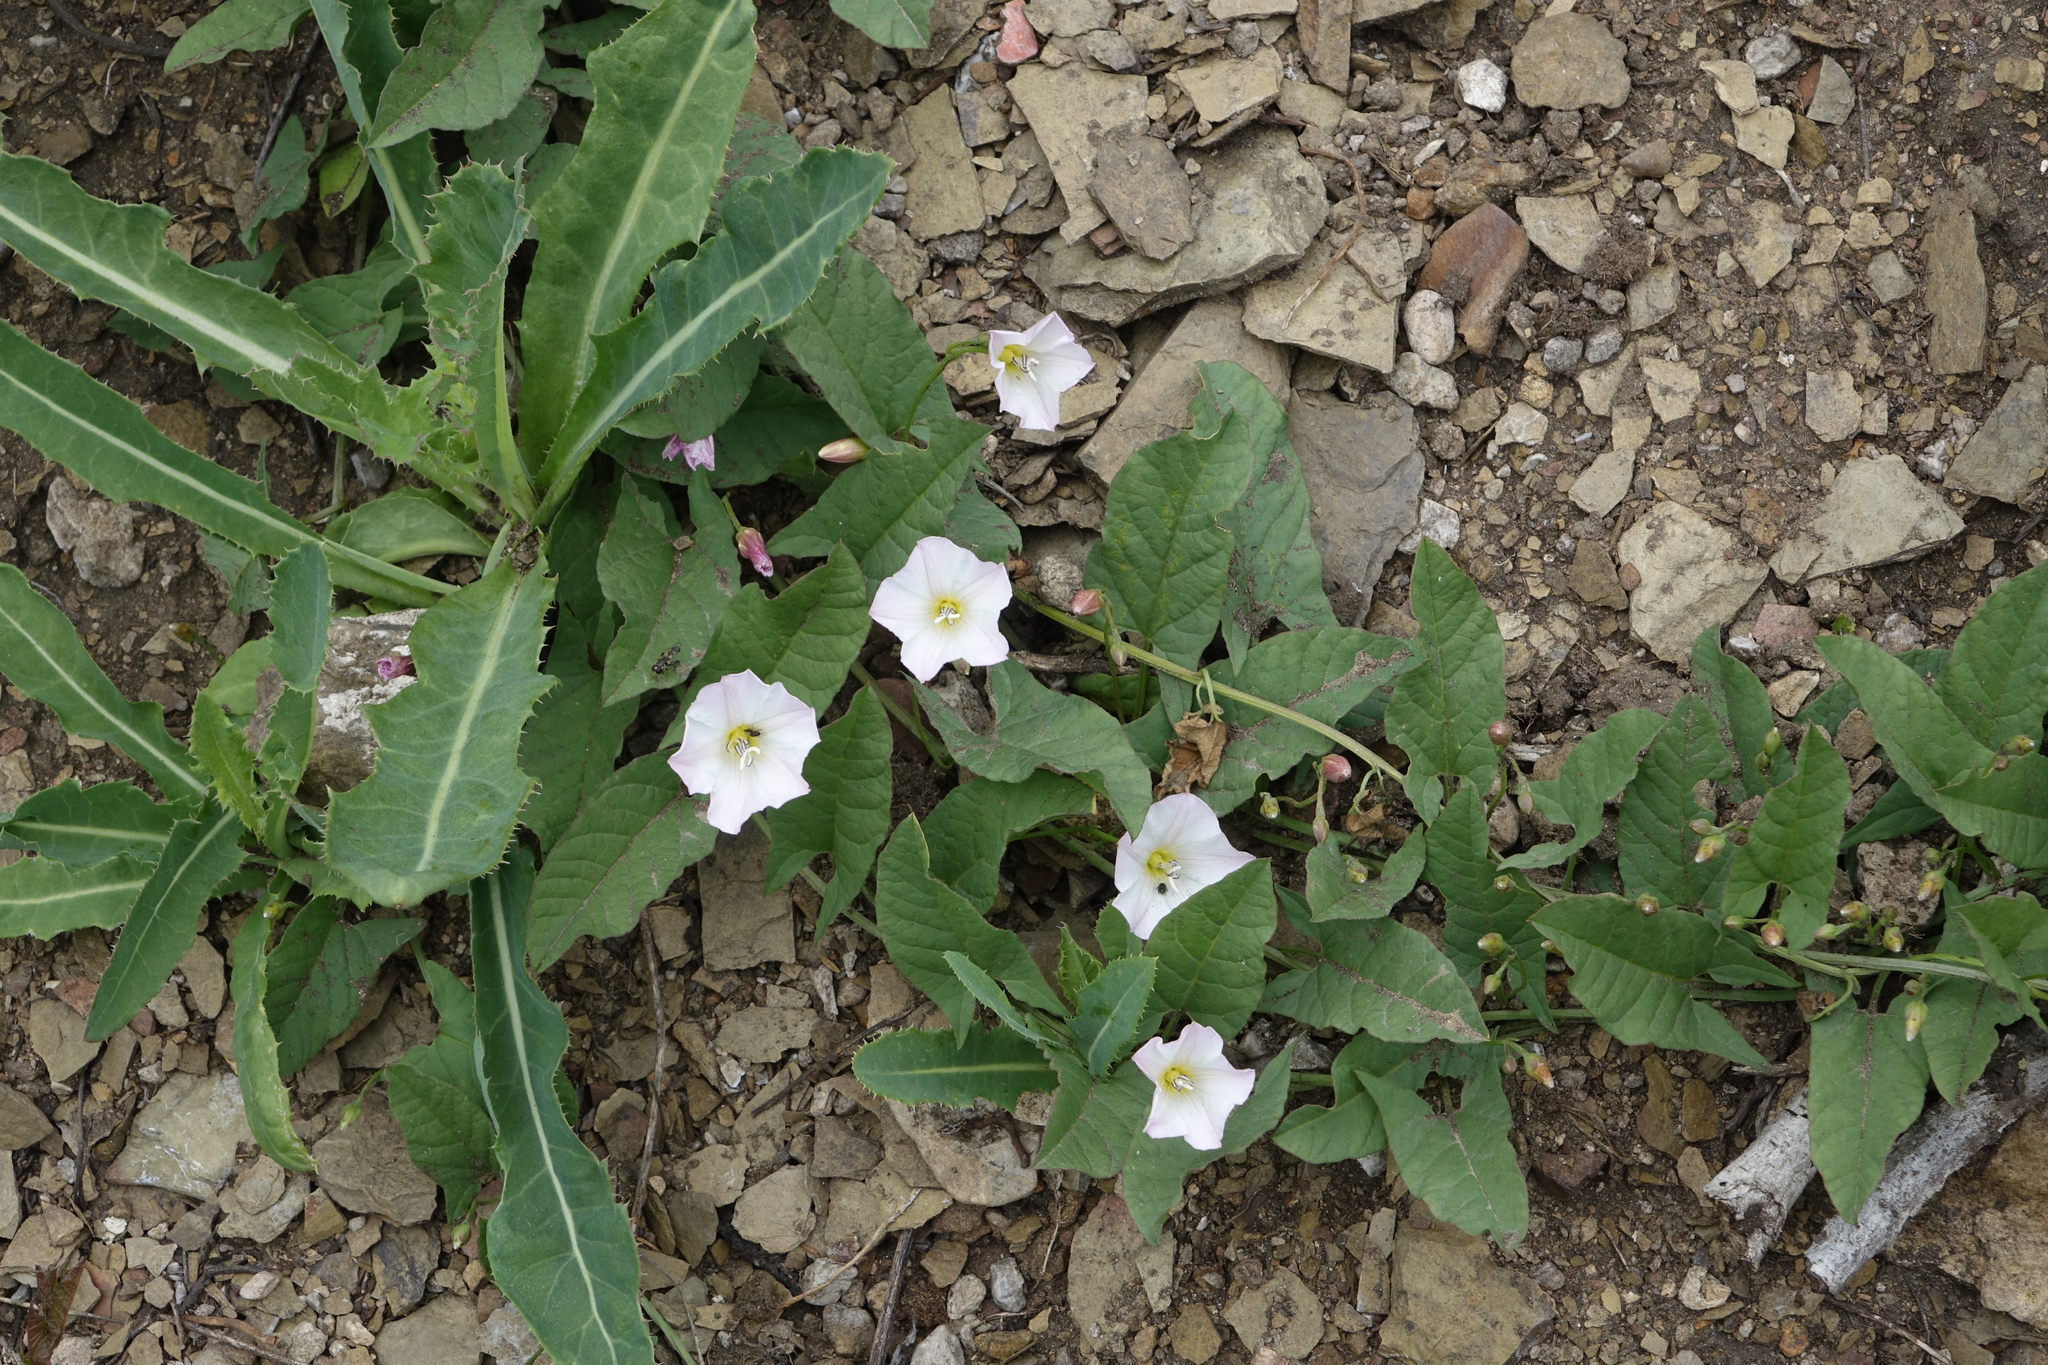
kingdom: Plantae
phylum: Tracheophyta
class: Magnoliopsida
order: Solanales
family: Convolvulaceae
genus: Convolvulus
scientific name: Convolvulus arvensis
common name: Field bindweed
